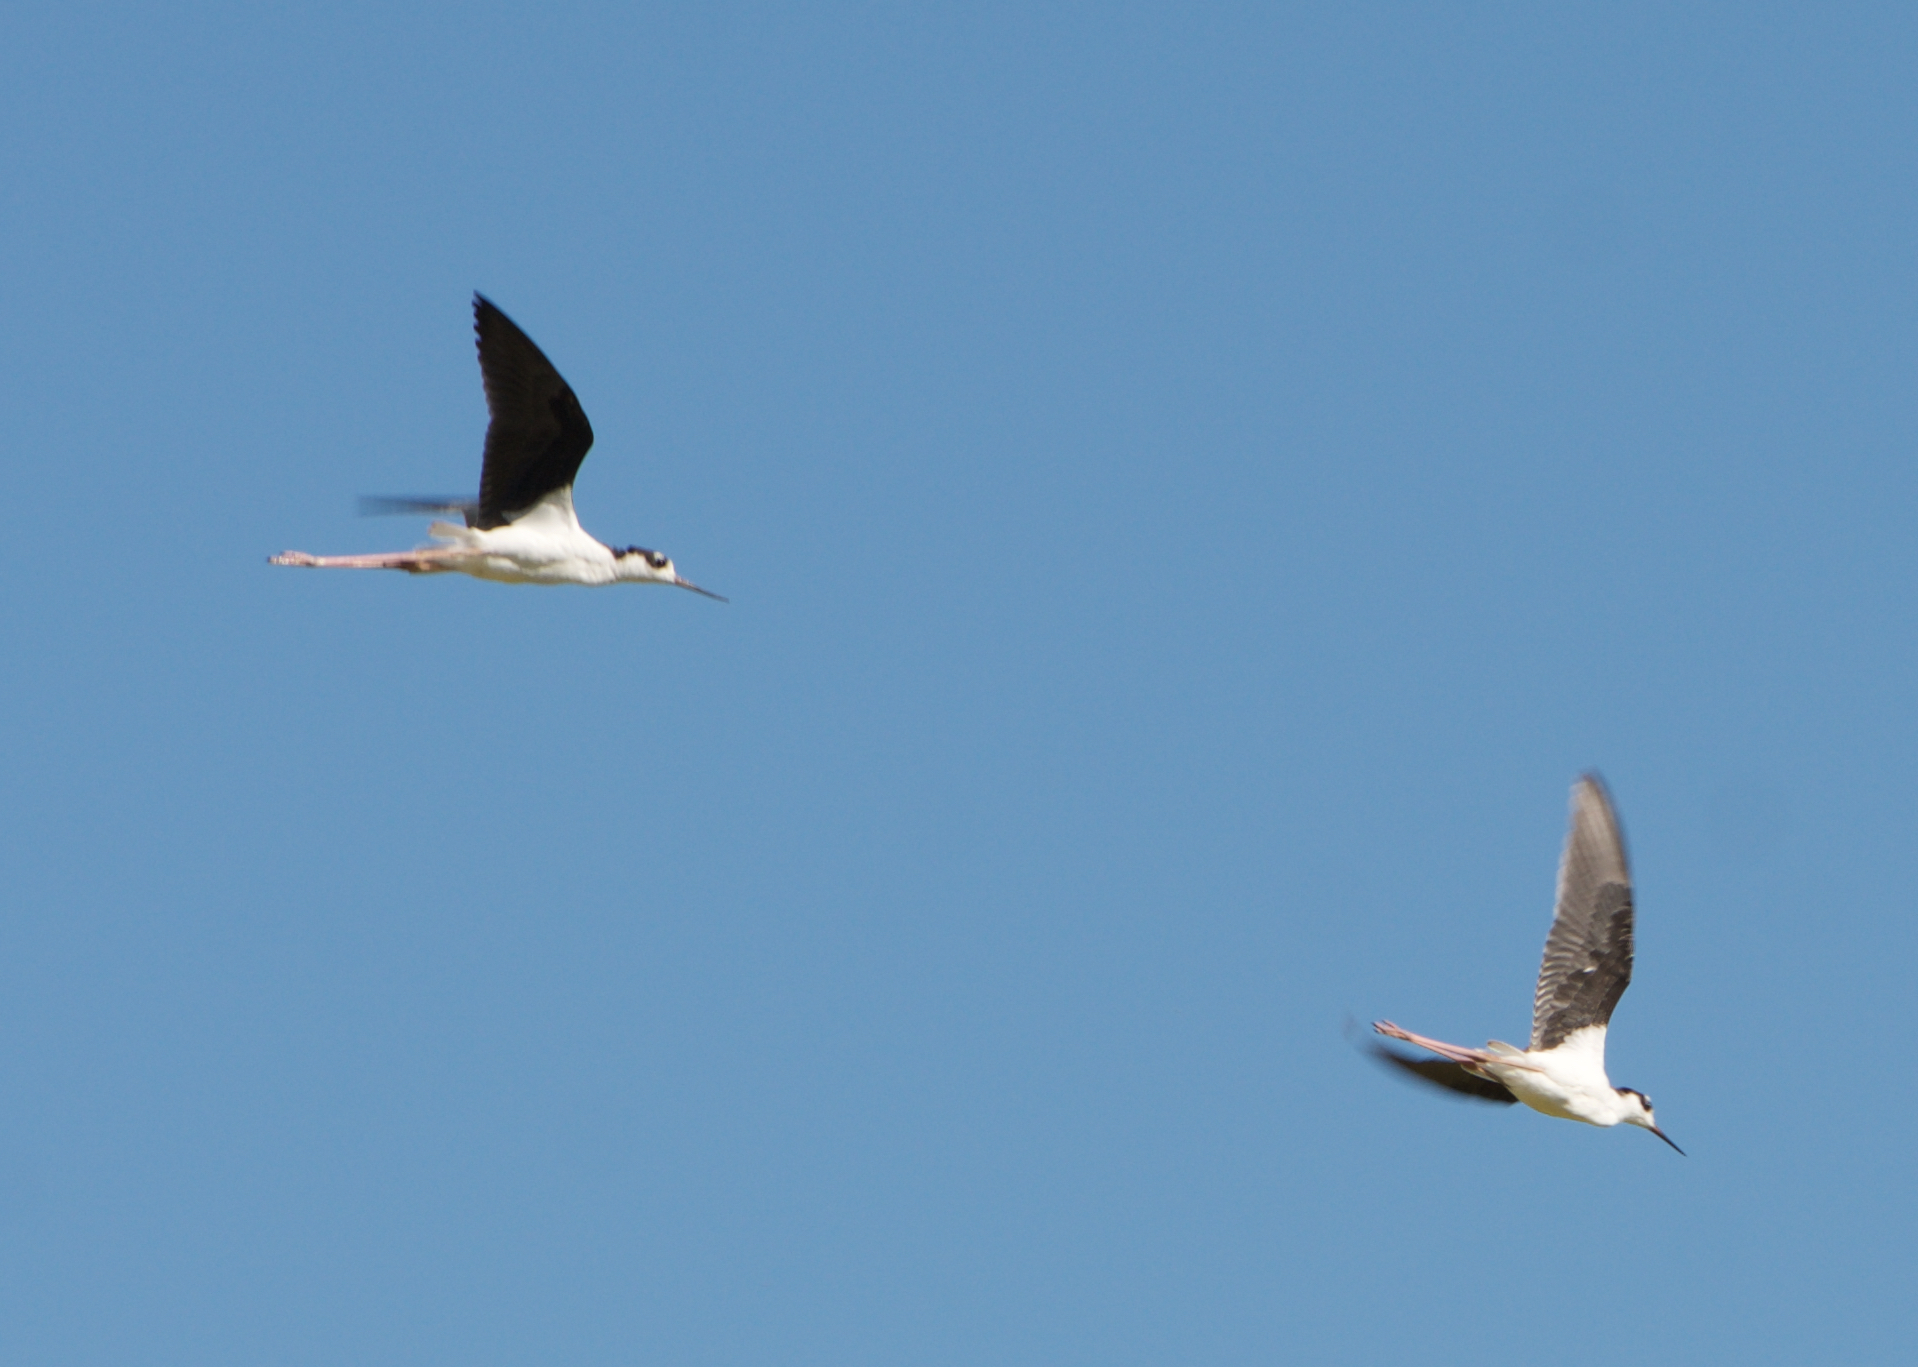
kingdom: Animalia
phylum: Chordata
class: Aves
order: Charadriiformes
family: Recurvirostridae
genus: Himantopus
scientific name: Himantopus mexicanus
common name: Black-necked stilt
